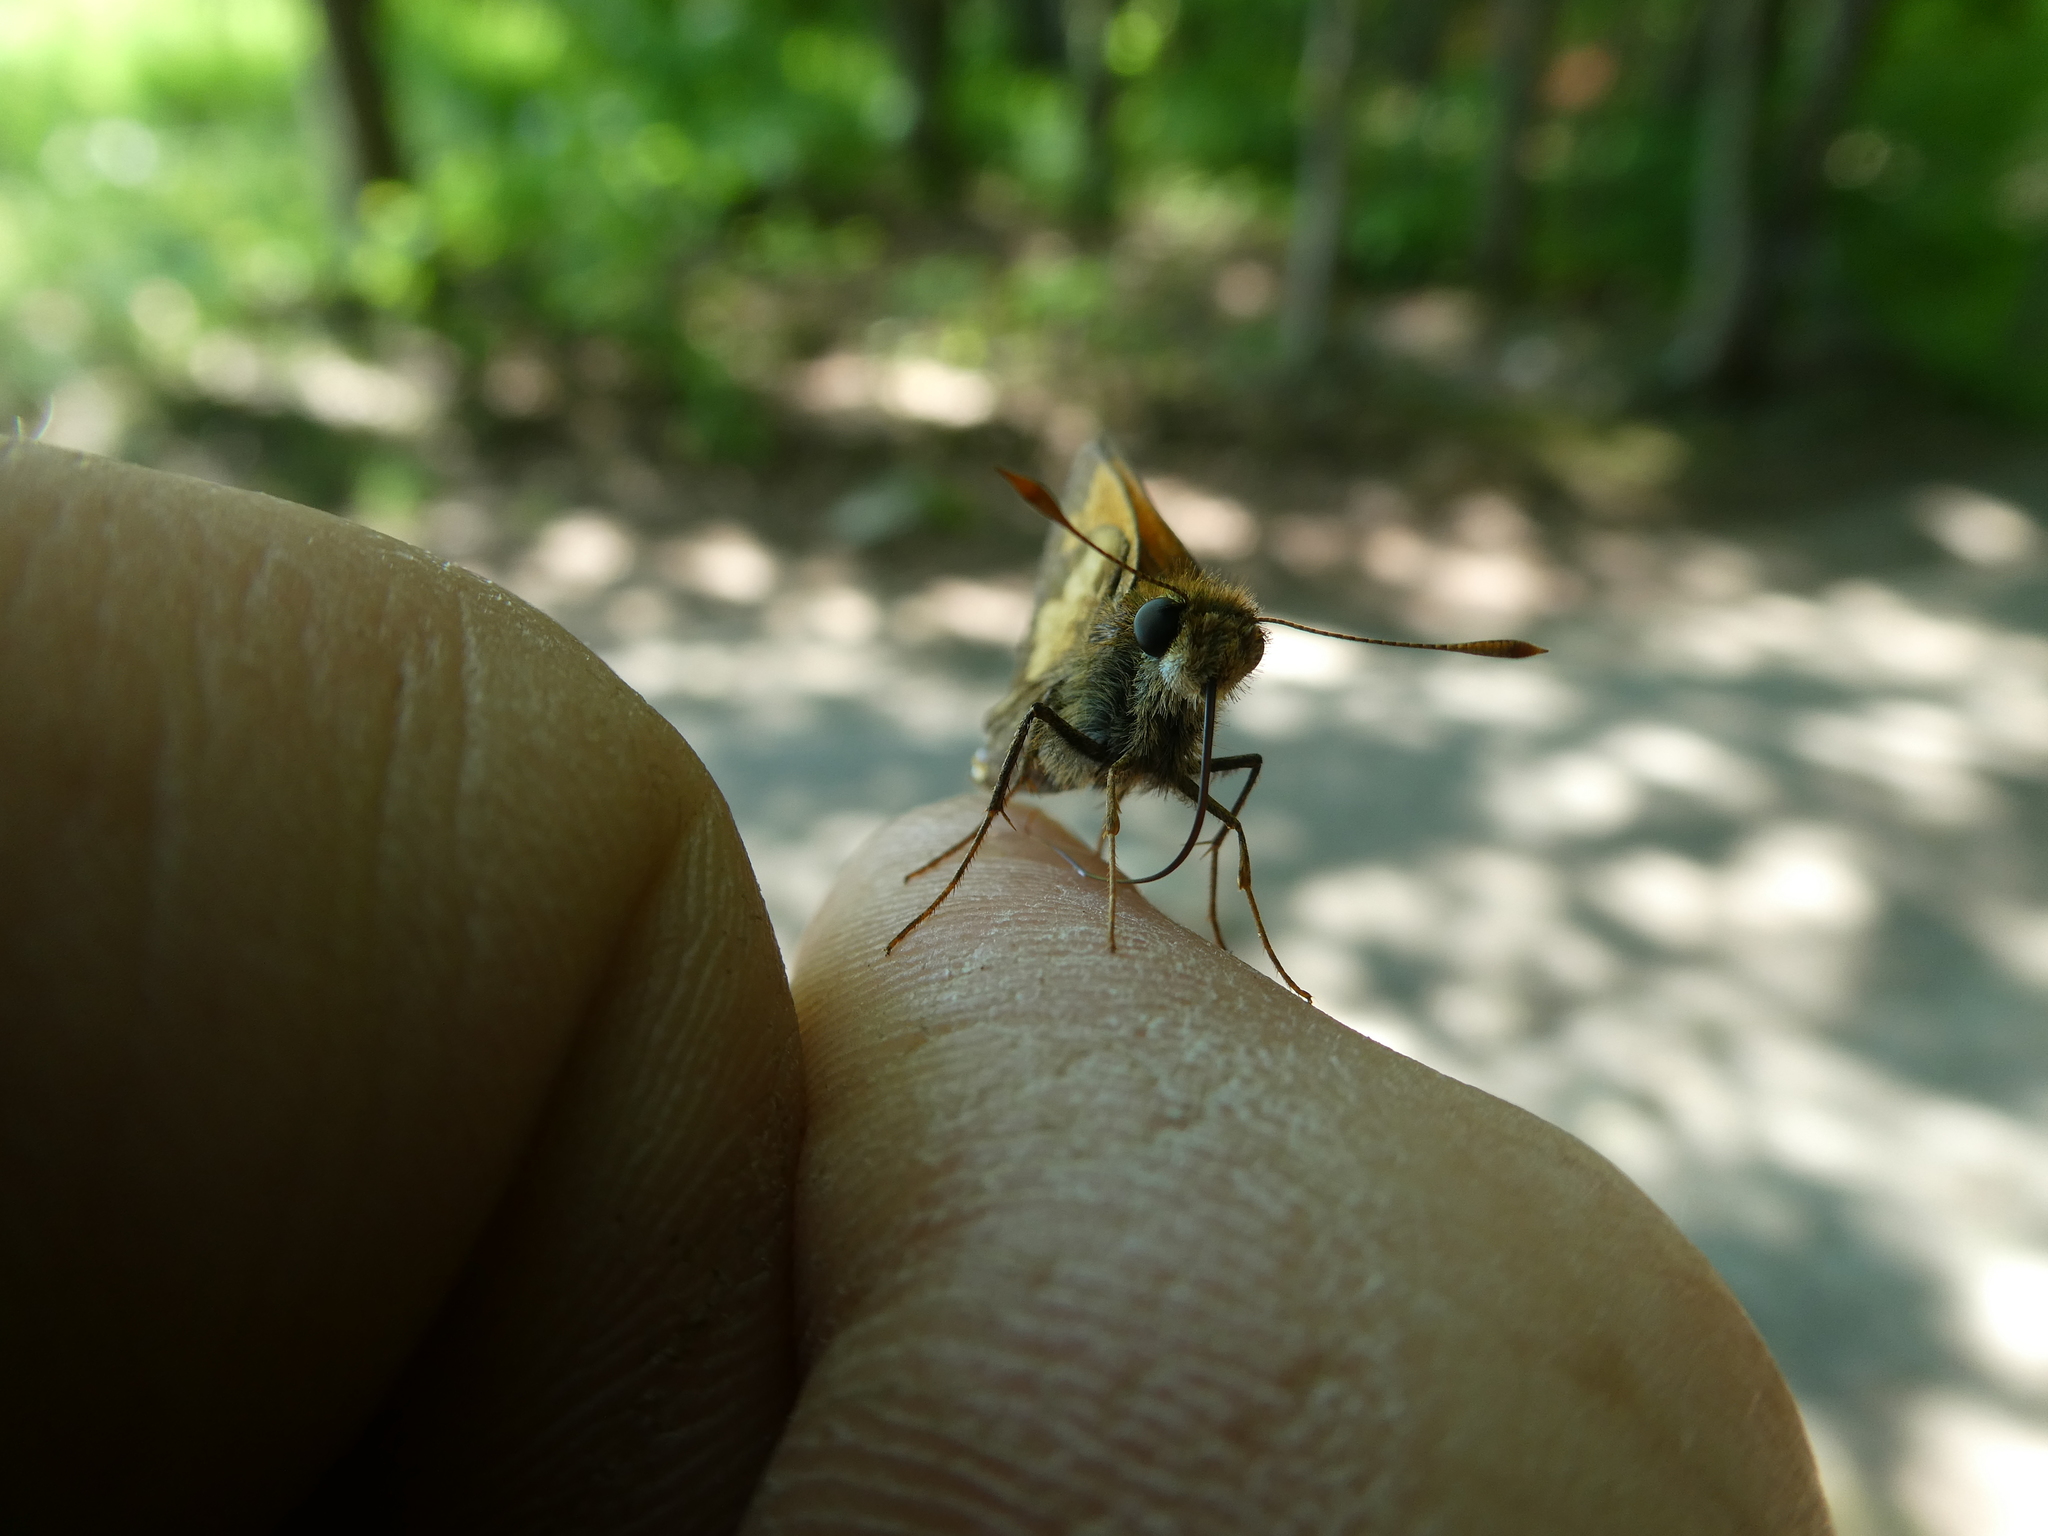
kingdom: Animalia
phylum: Arthropoda
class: Insecta
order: Lepidoptera
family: Hesperiidae
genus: Lon
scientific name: Lon hobomok
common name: Hobomok skipper
